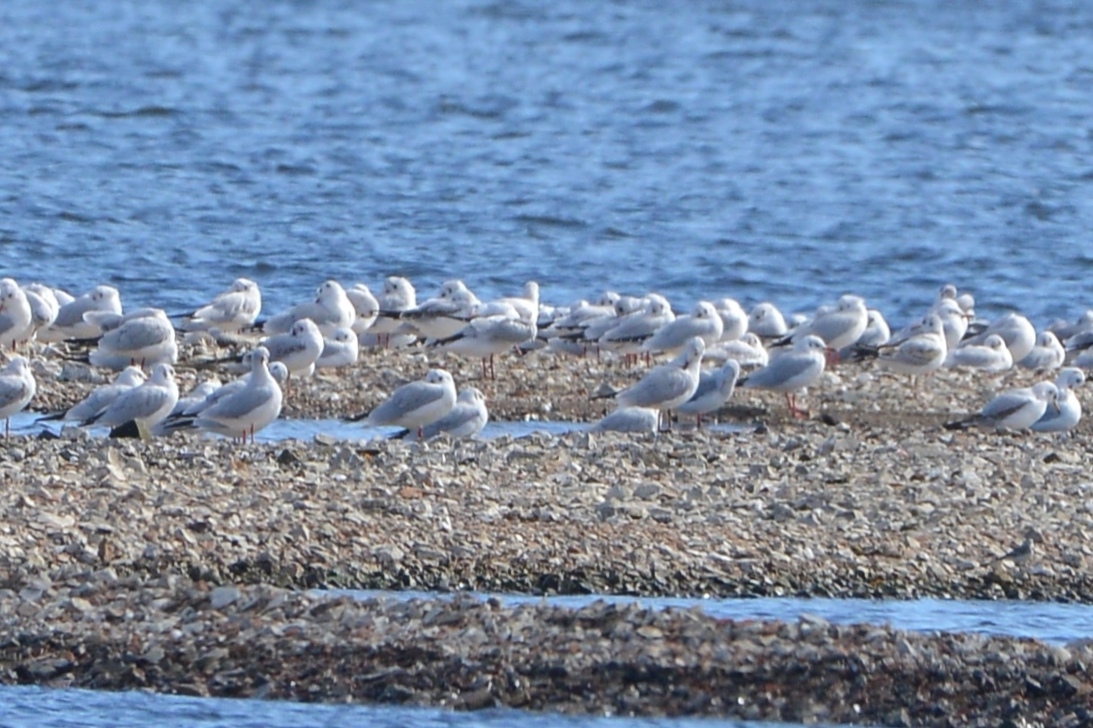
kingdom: Animalia
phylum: Chordata
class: Aves
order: Charadriiformes
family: Laridae
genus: Chroicocephalus
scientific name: Chroicocephalus ridibundus
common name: Black-headed gull
